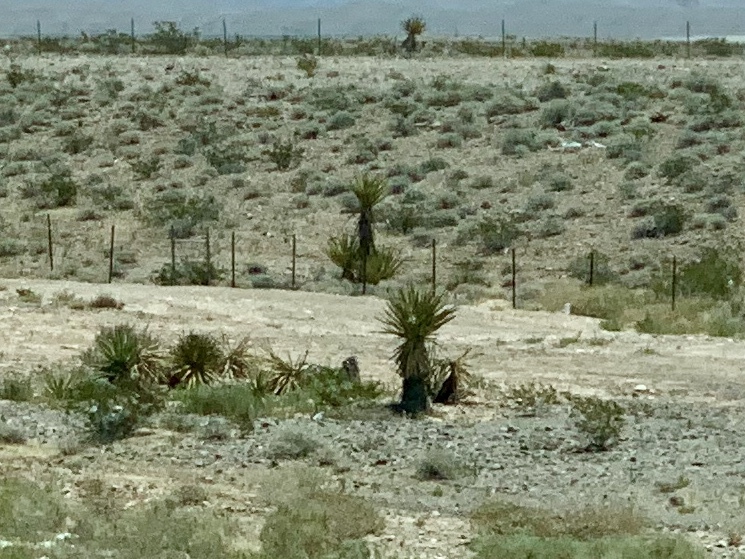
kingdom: Plantae
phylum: Tracheophyta
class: Liliopsida
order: Asparagales
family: Asparagaceae
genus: Yucca
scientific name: Yucca schidigera
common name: Mojave yucca
